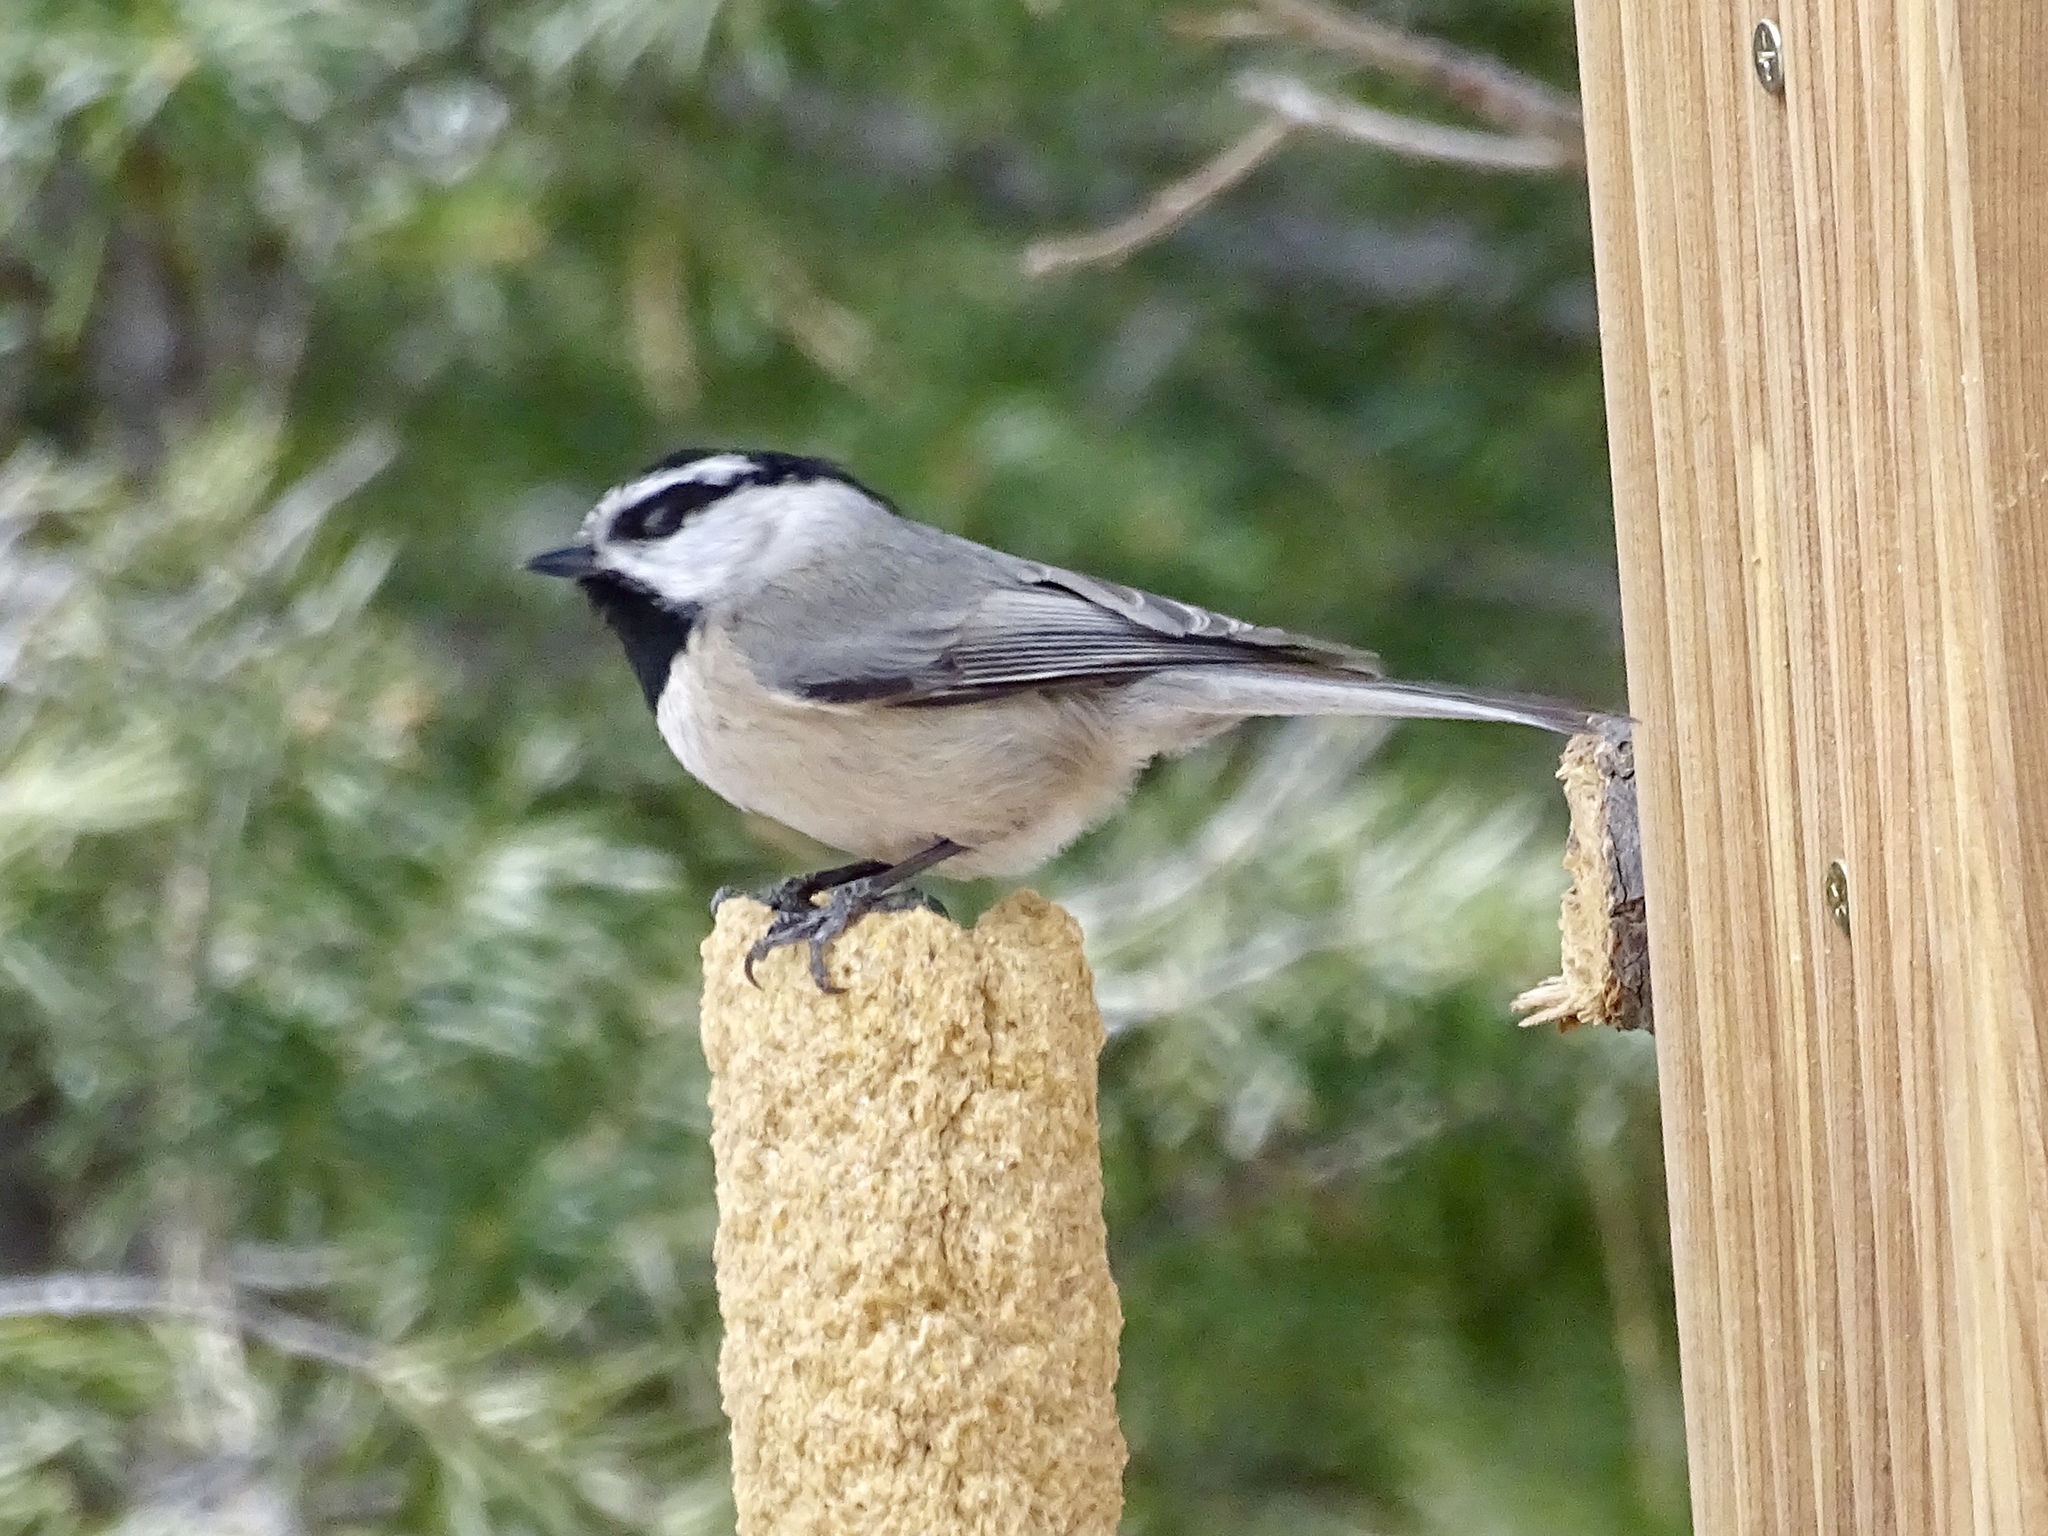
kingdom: Animalia
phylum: Chordata
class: Aves
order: Passeriformes
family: Paridae
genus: Poecile
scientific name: Poecile gambeli
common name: Mountain chickadee
